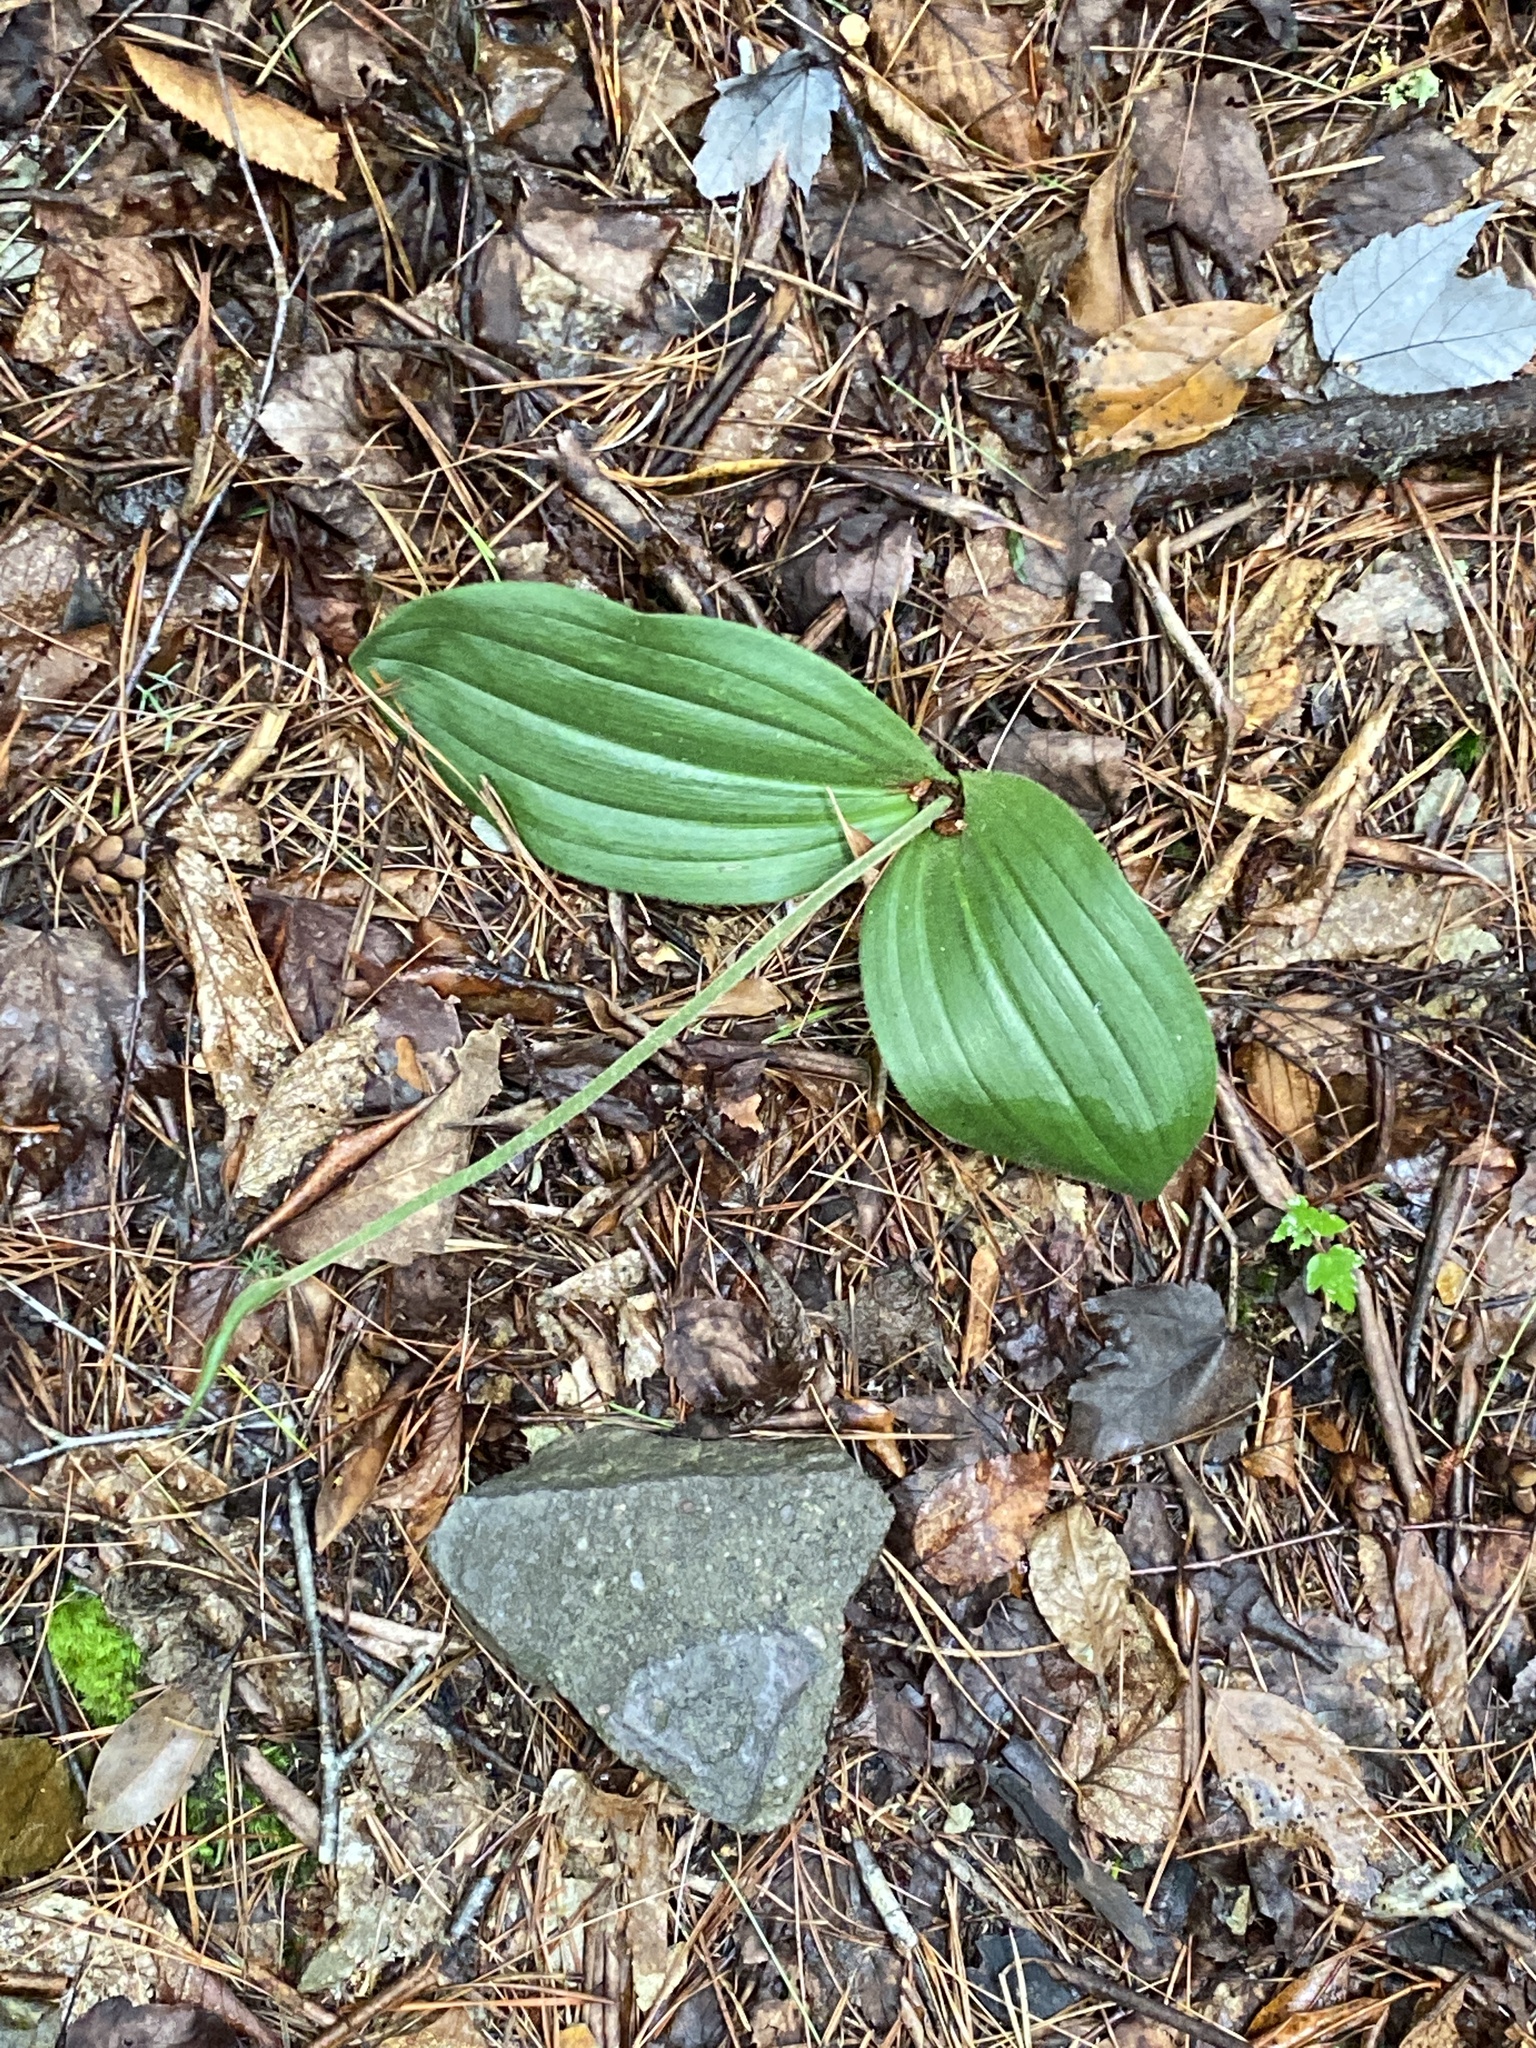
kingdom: Plantae
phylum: Tracheophyta
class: Liliopsida
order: Asparagales
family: Orchidaceae
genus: Cypripedium
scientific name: Cypripedium acaule
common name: Pink lady's-slipper
